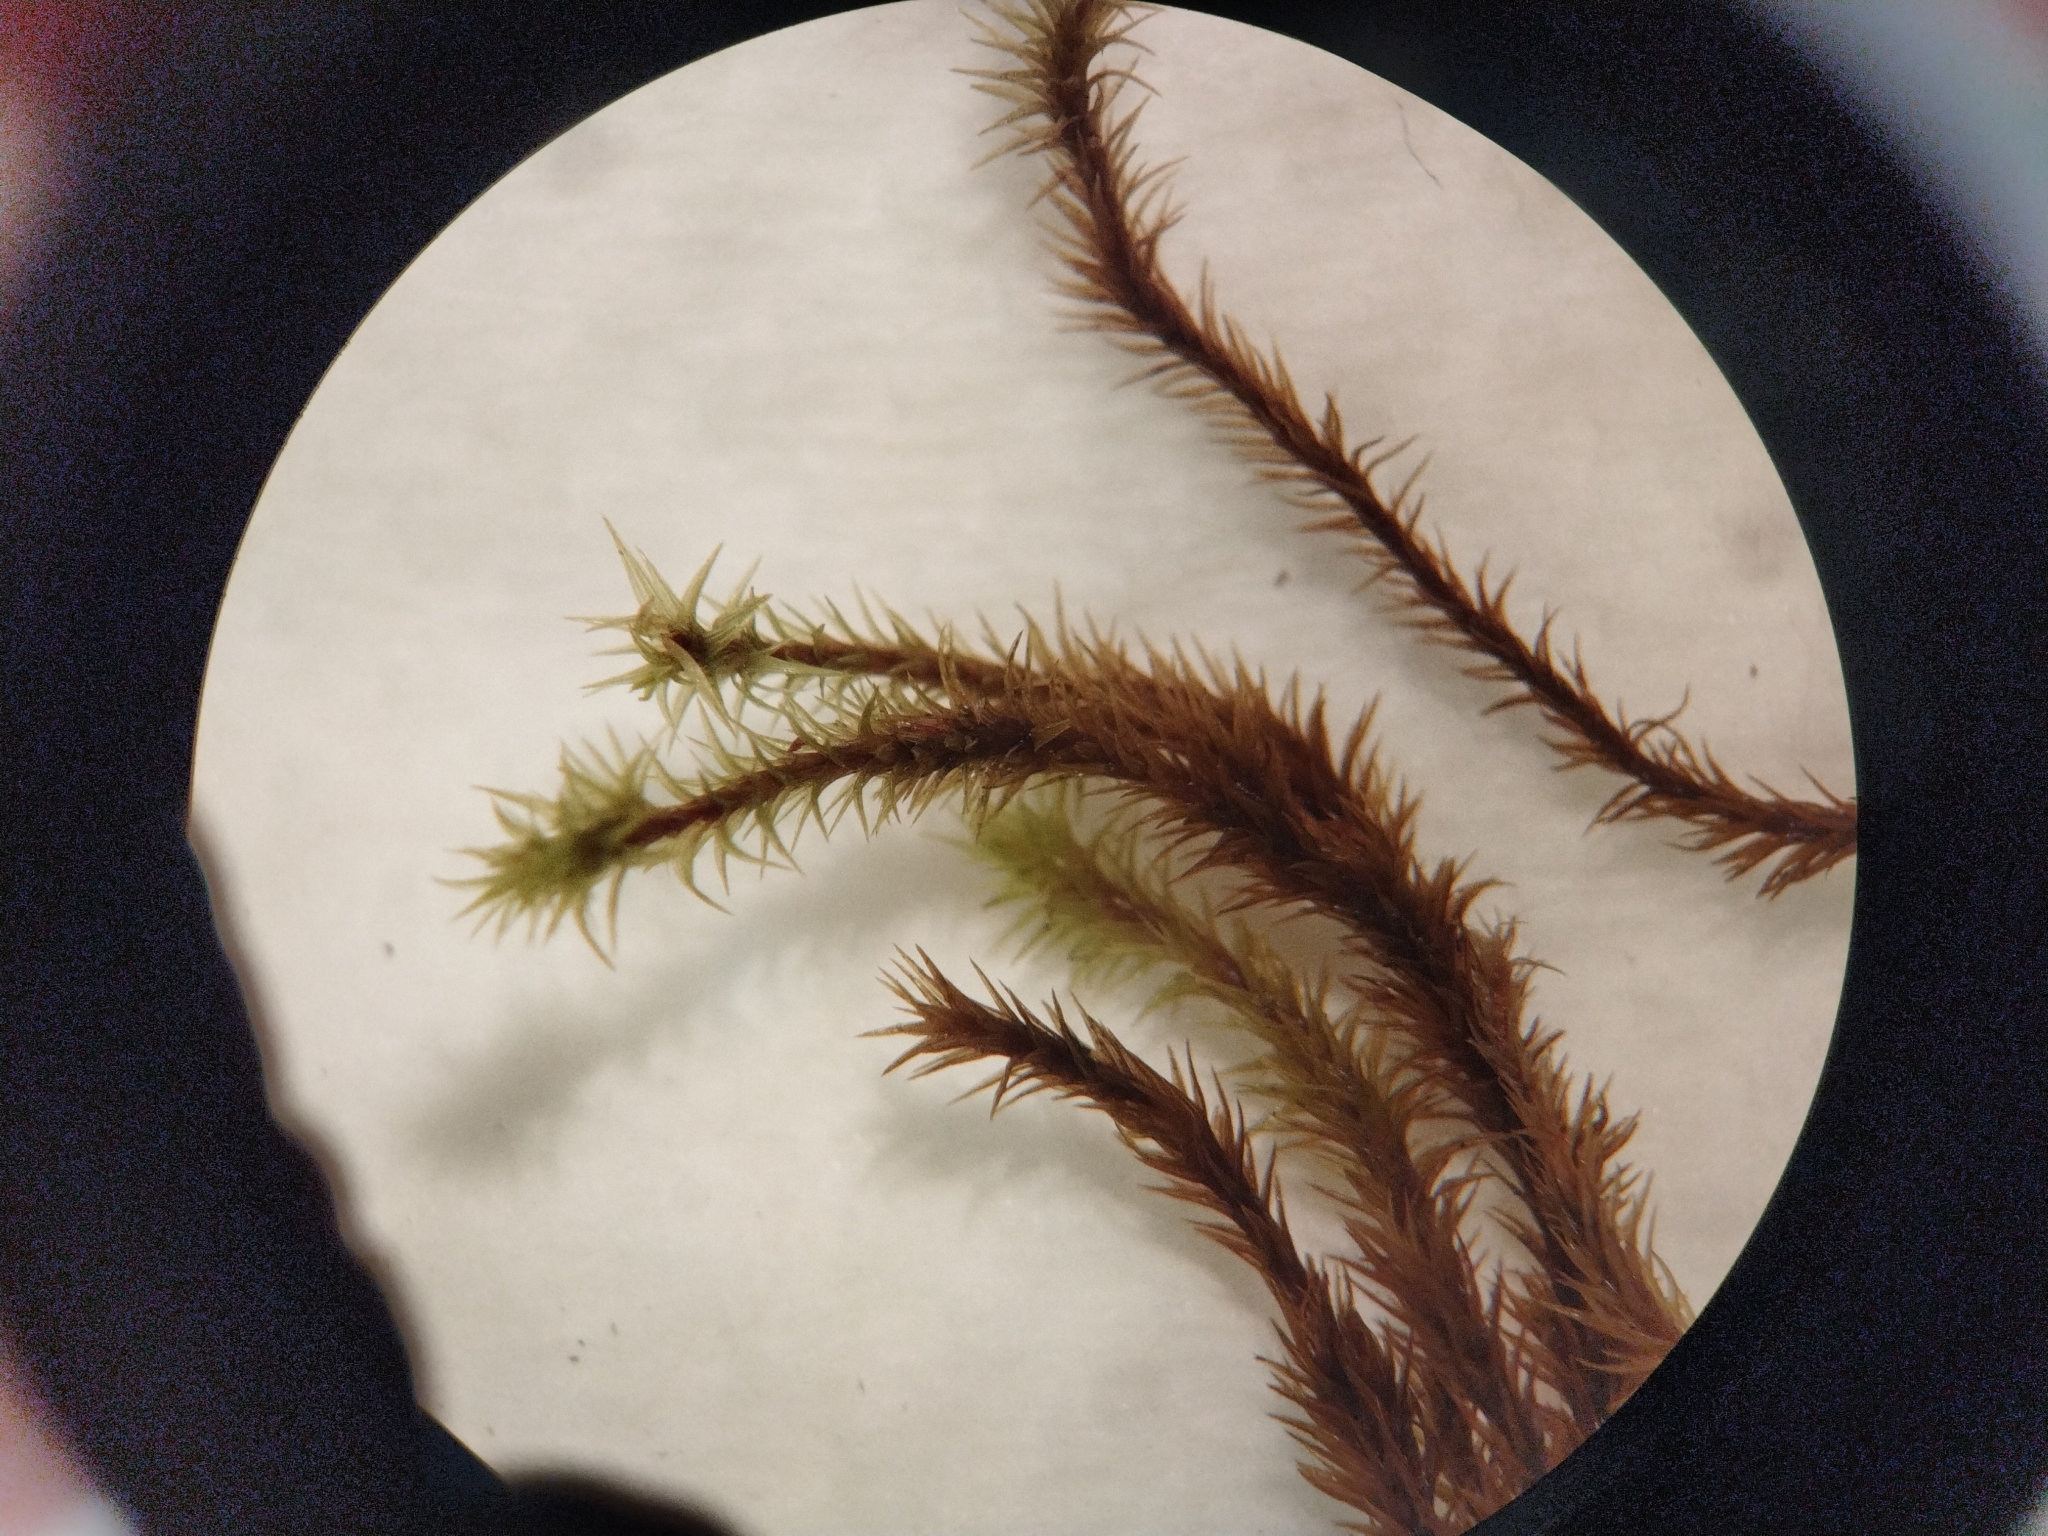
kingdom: Plantae
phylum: Bryophyta
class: Bryopsida
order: Grimmiales
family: Grimmiaceae
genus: Bucklandiella
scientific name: Bucklandiella ptychophylla
